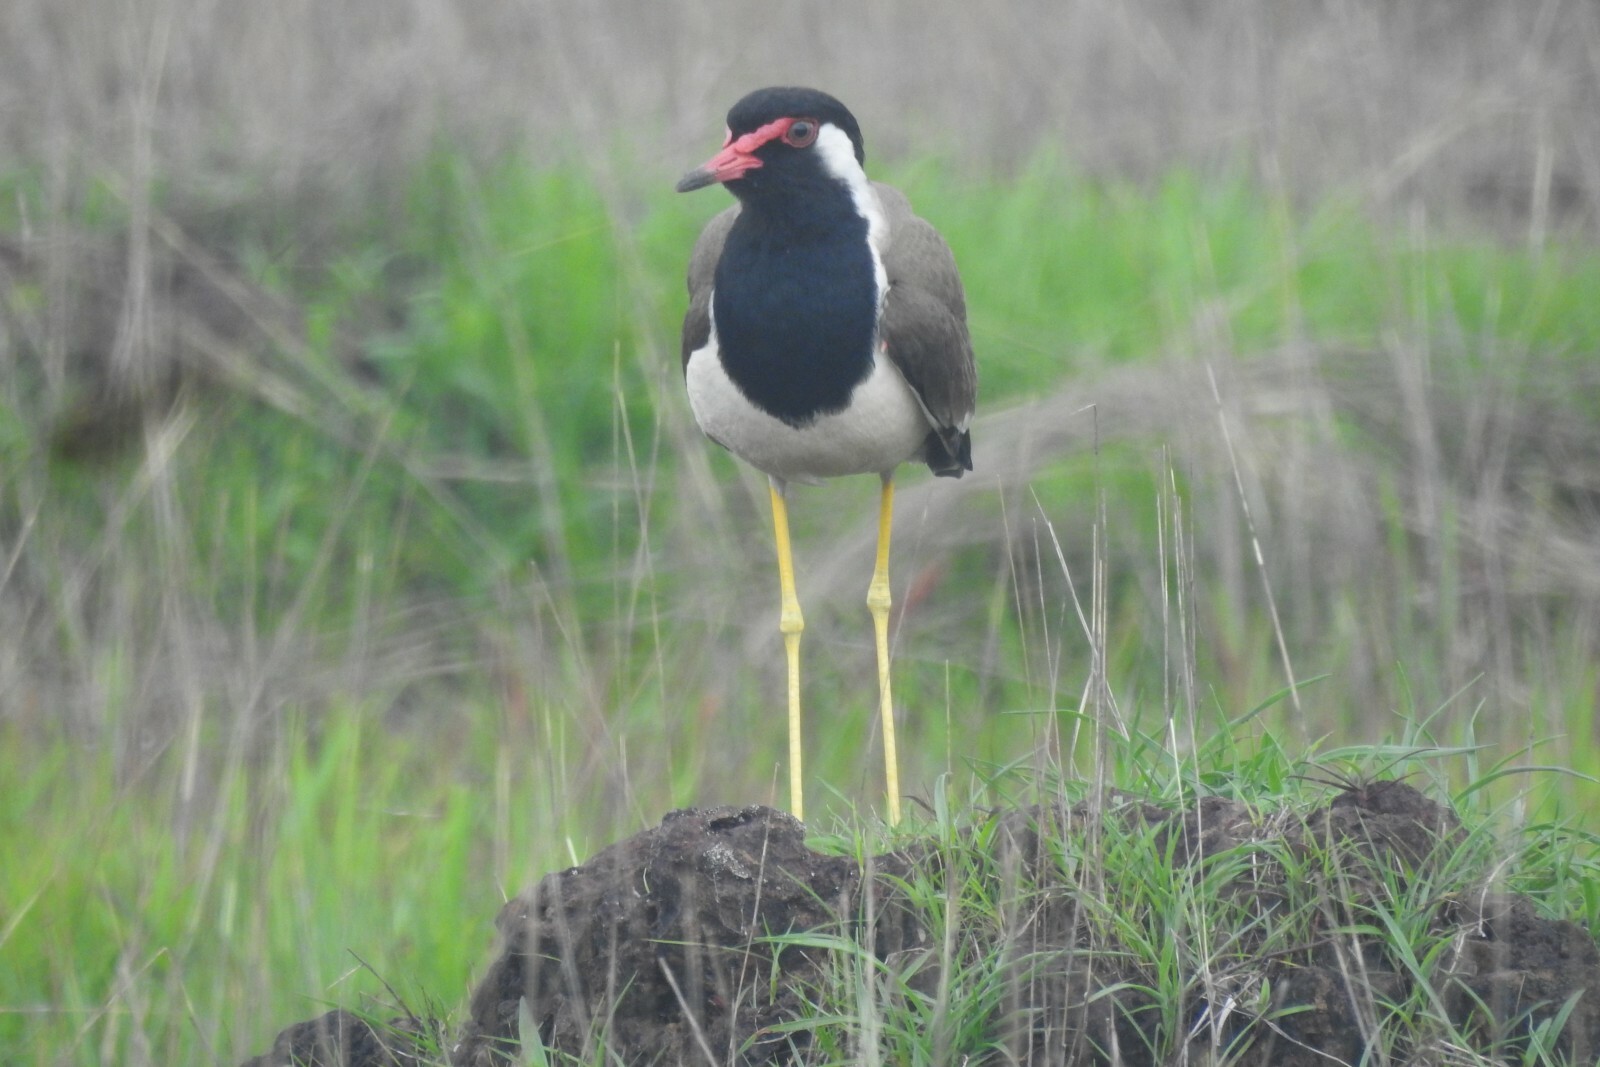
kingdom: Animalia
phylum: Chordata
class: Aves
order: Charadriiformes
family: Charadriidae
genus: Vanellus
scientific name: Vanellus indicus
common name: Red-wattled lapwing
